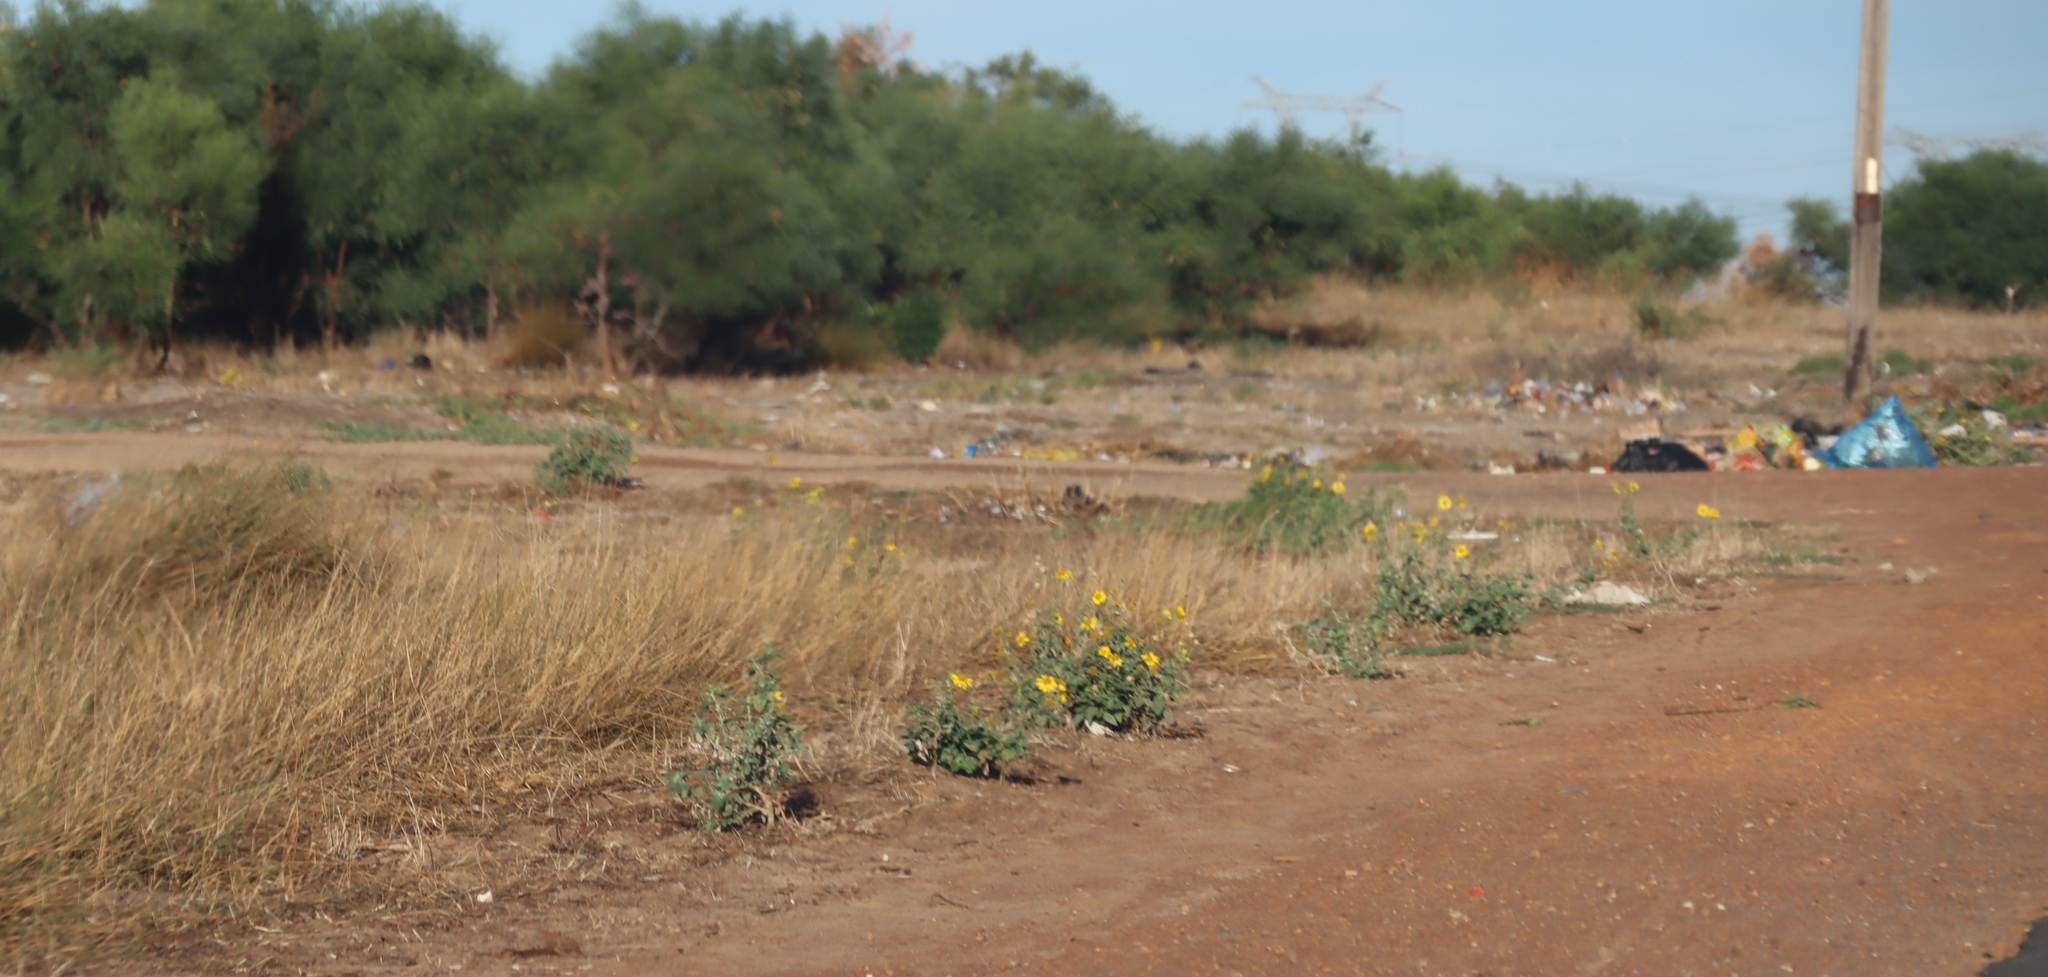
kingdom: Plantae
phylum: Tracheophyta
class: Magnoliopsida
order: Asterales
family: Asteraceae
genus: Verbesina
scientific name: Verbesina encelioides
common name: Golden crownbeard
